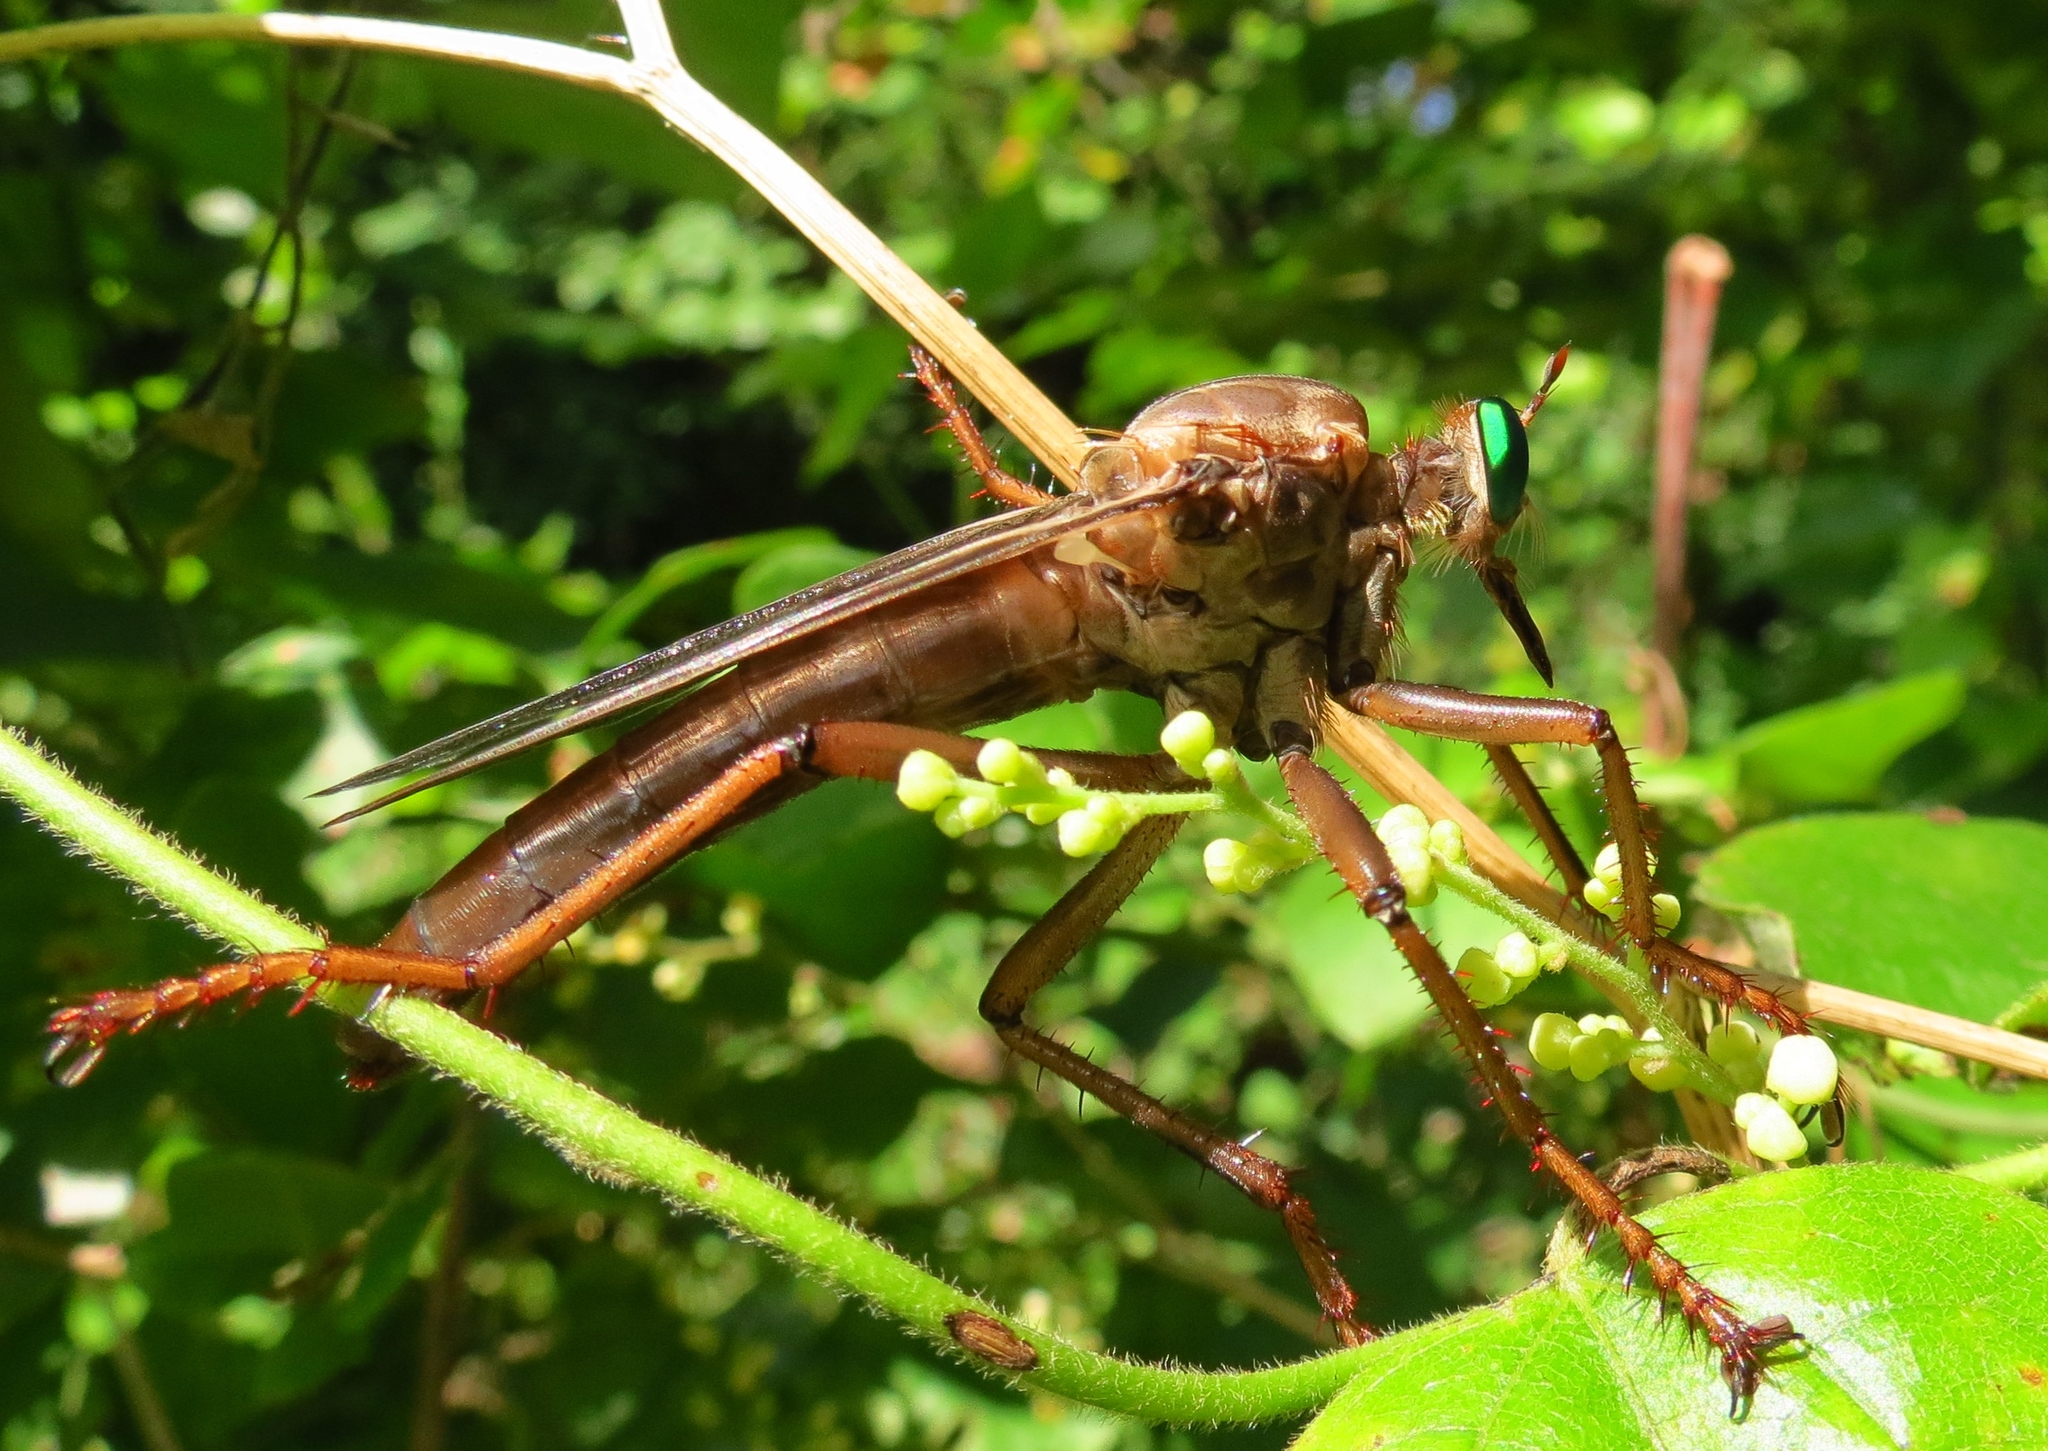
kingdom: Animalia
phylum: Arthropoda
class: Insecta
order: Diptera
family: Asilidae
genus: Microstylum
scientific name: Microstylum morosum
